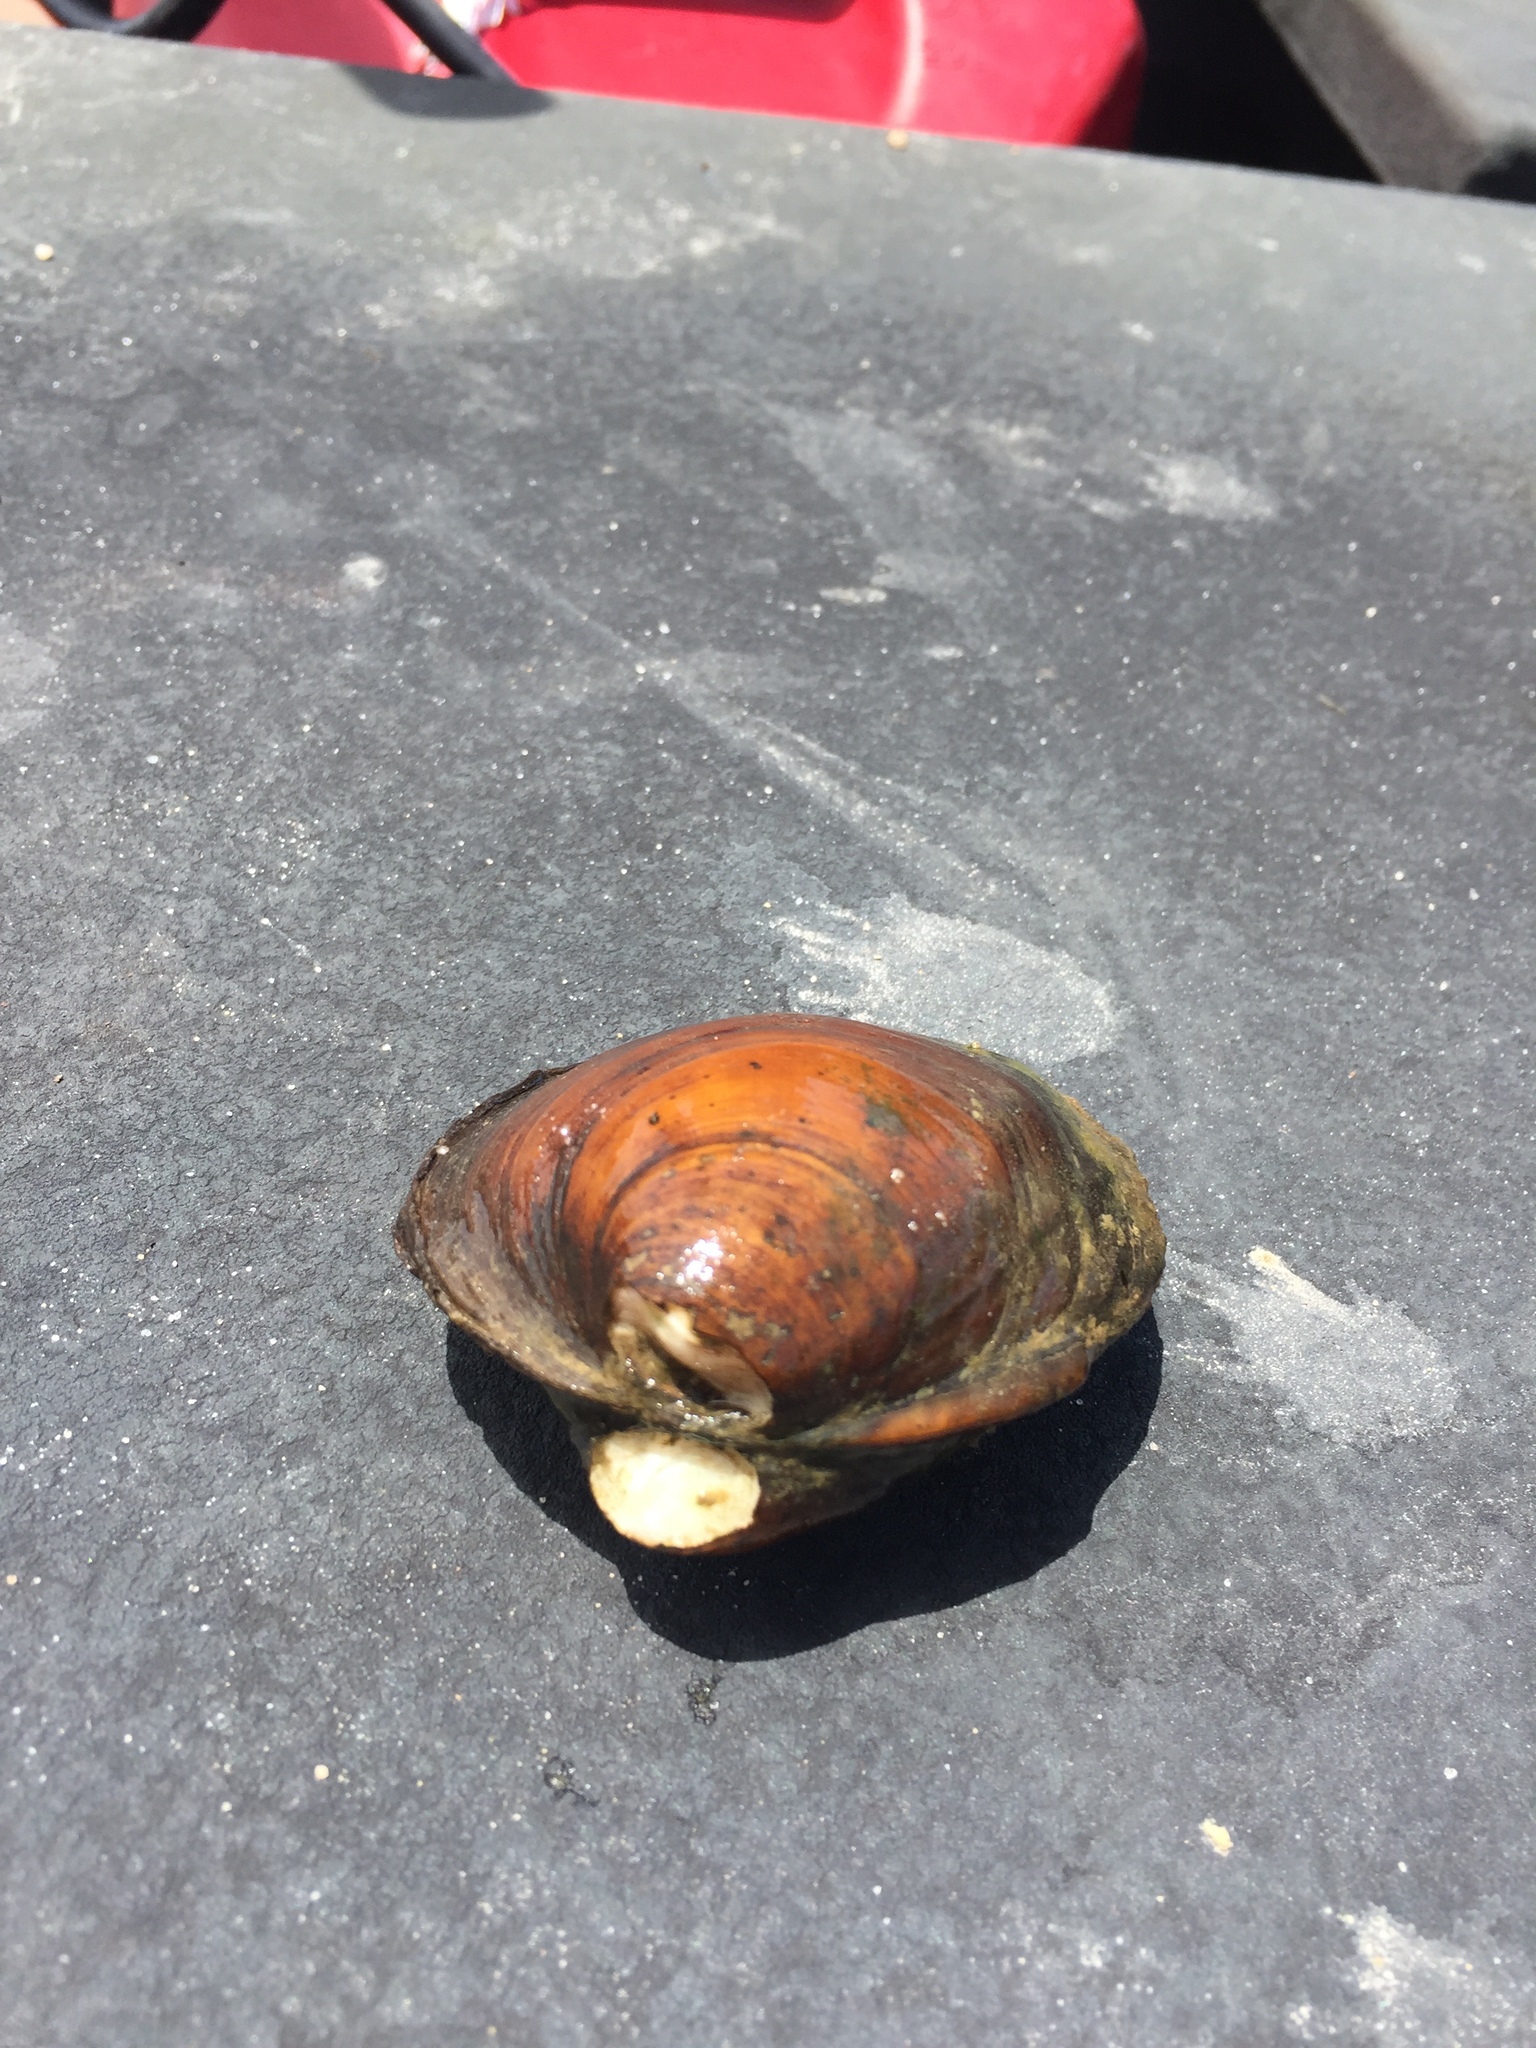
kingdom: Animalia
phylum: Mollusca
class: Bivalvia
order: Unionida
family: Unionidae
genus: Reginaia
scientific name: Reginaia ebenus
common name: Ebonyshell
